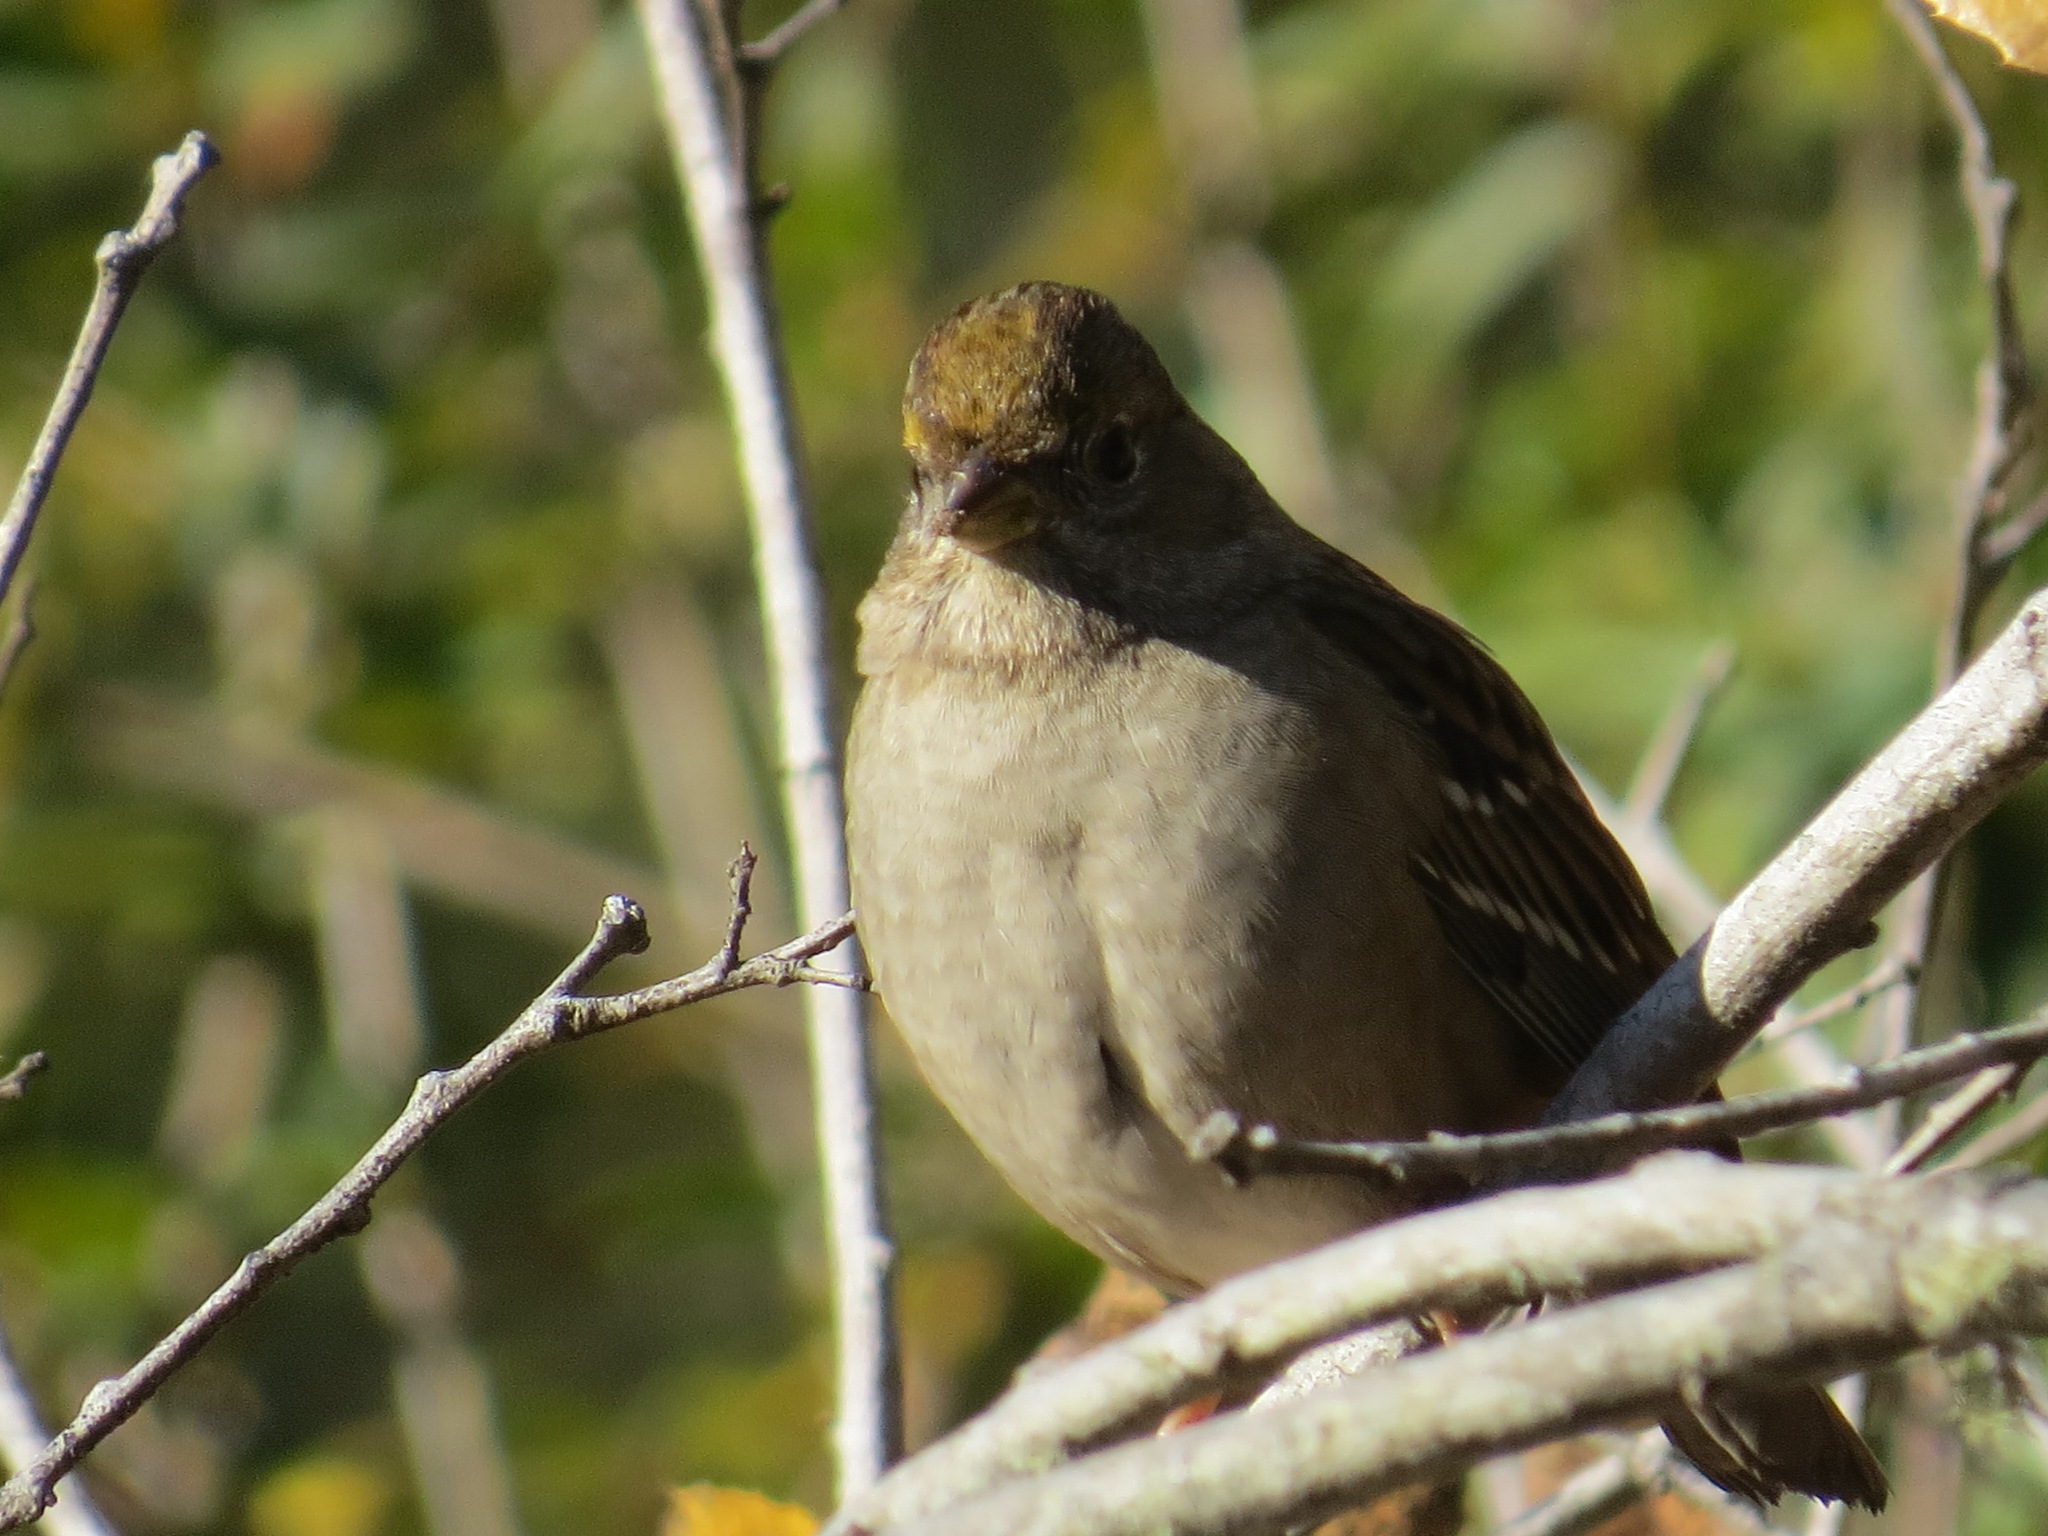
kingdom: Animalia
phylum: Chordata
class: Aves
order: Passeriformes
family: Passerellidae
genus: Zonotrichia
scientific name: Zonotrichia atricapilla
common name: Golden-crowned sparrow
